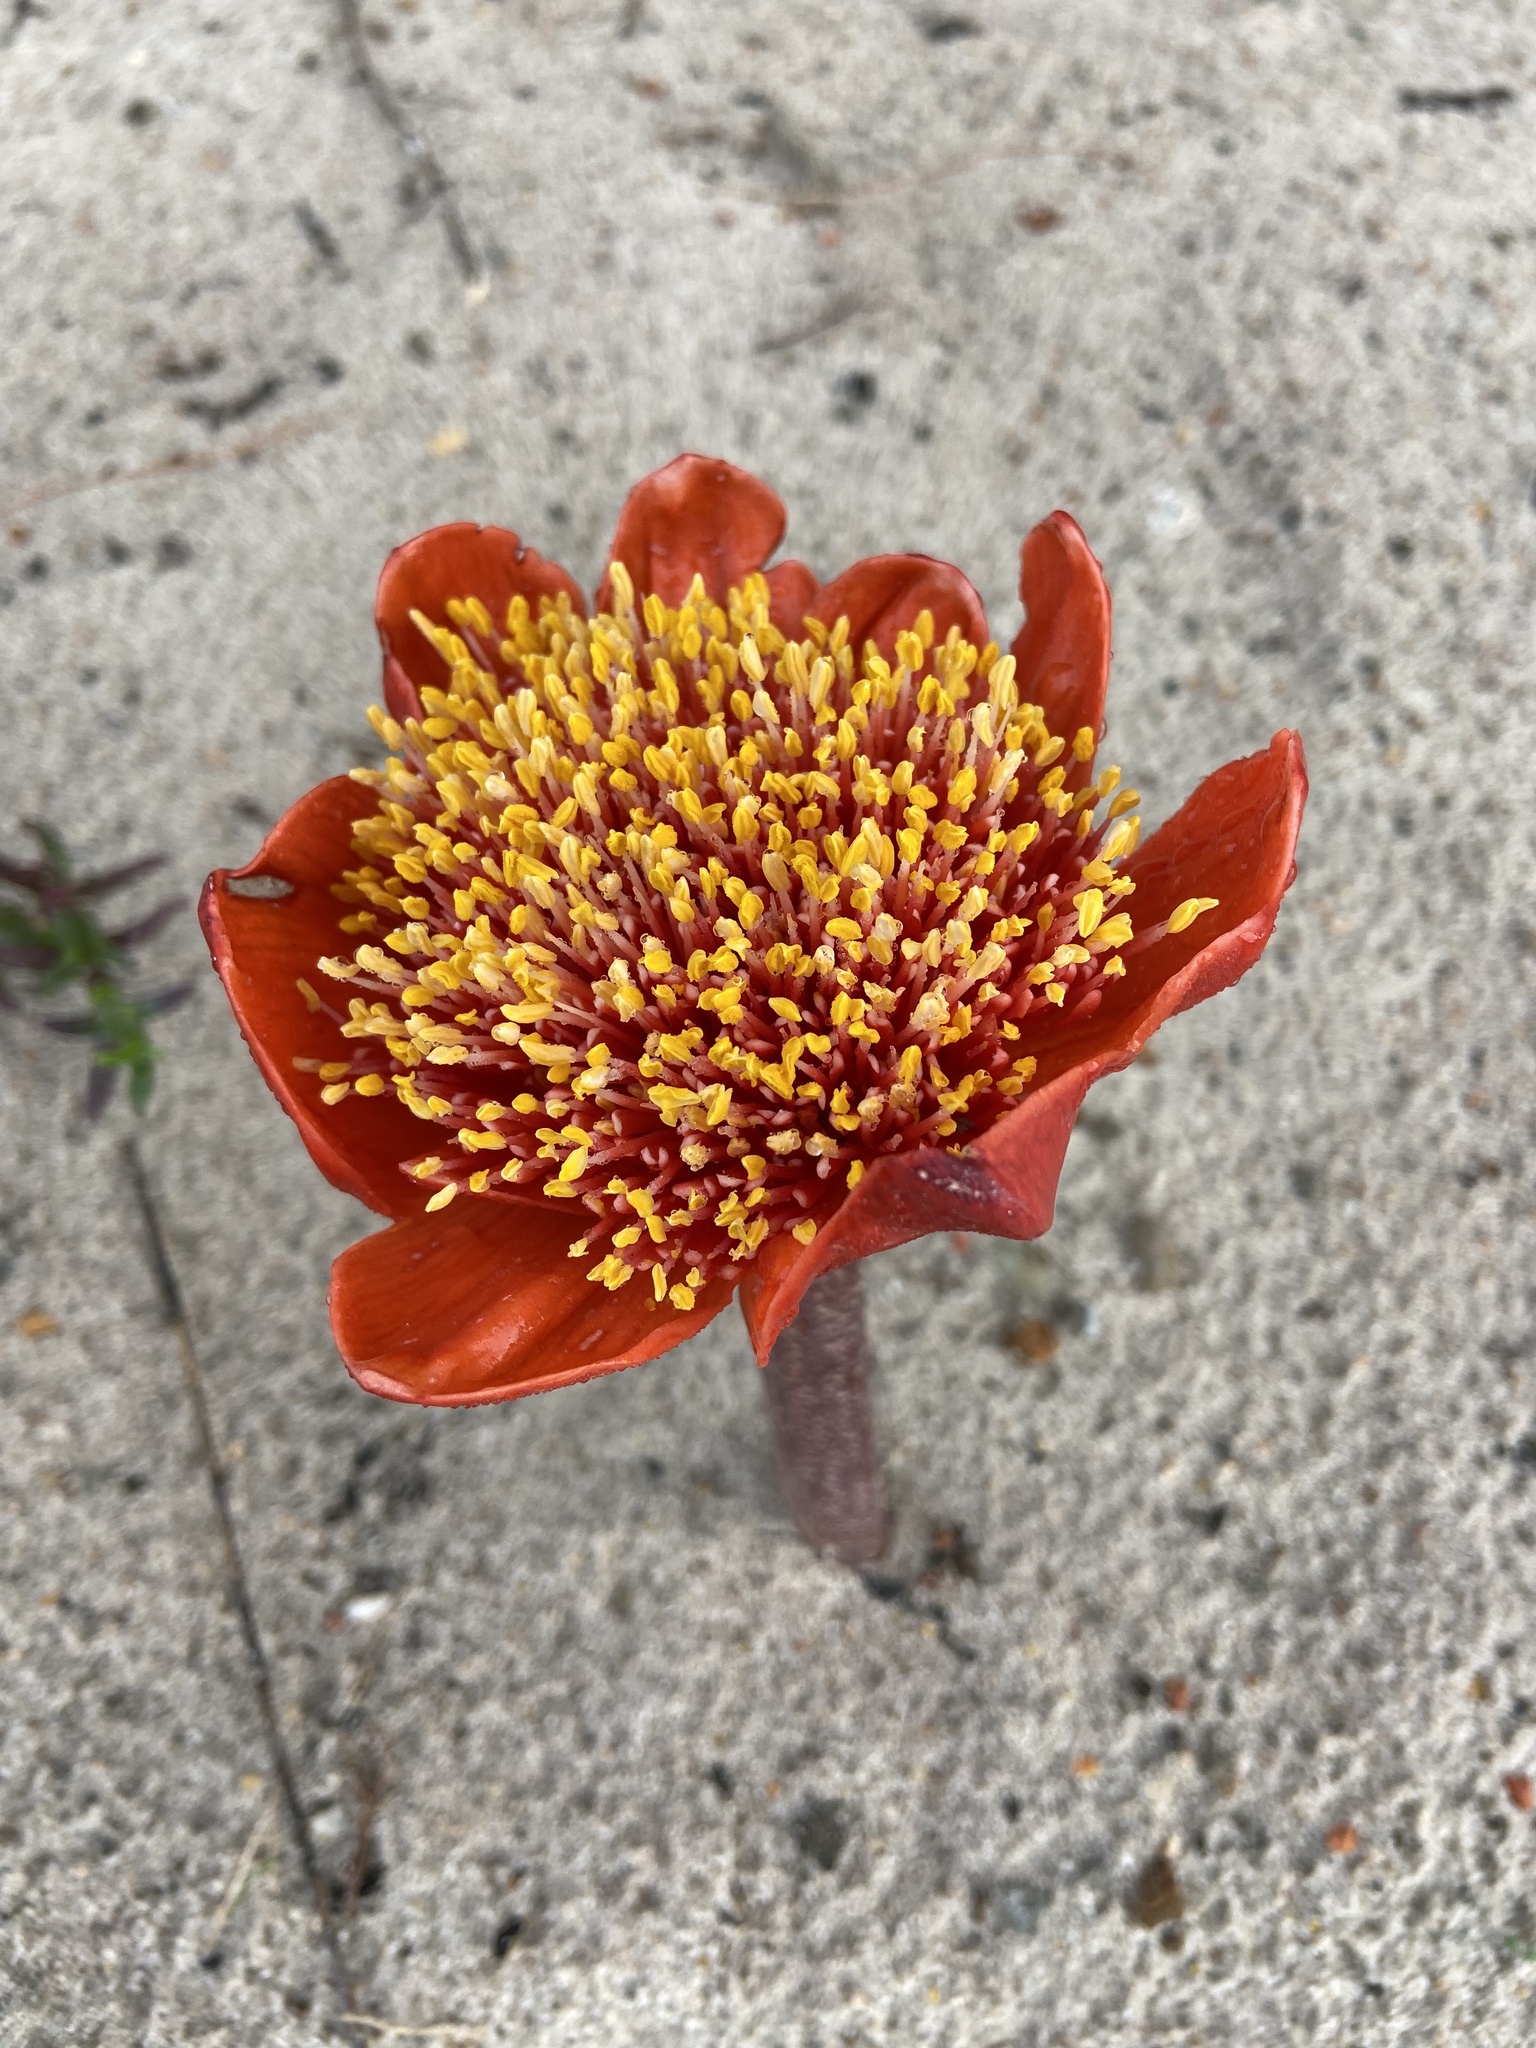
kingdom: Plantae
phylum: Tracheophyta
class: Liliopsida
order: Asparagales
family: Amaryllidaceae
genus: Haemanthus
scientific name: Haemanthus coccineus
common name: Cape-tulip
